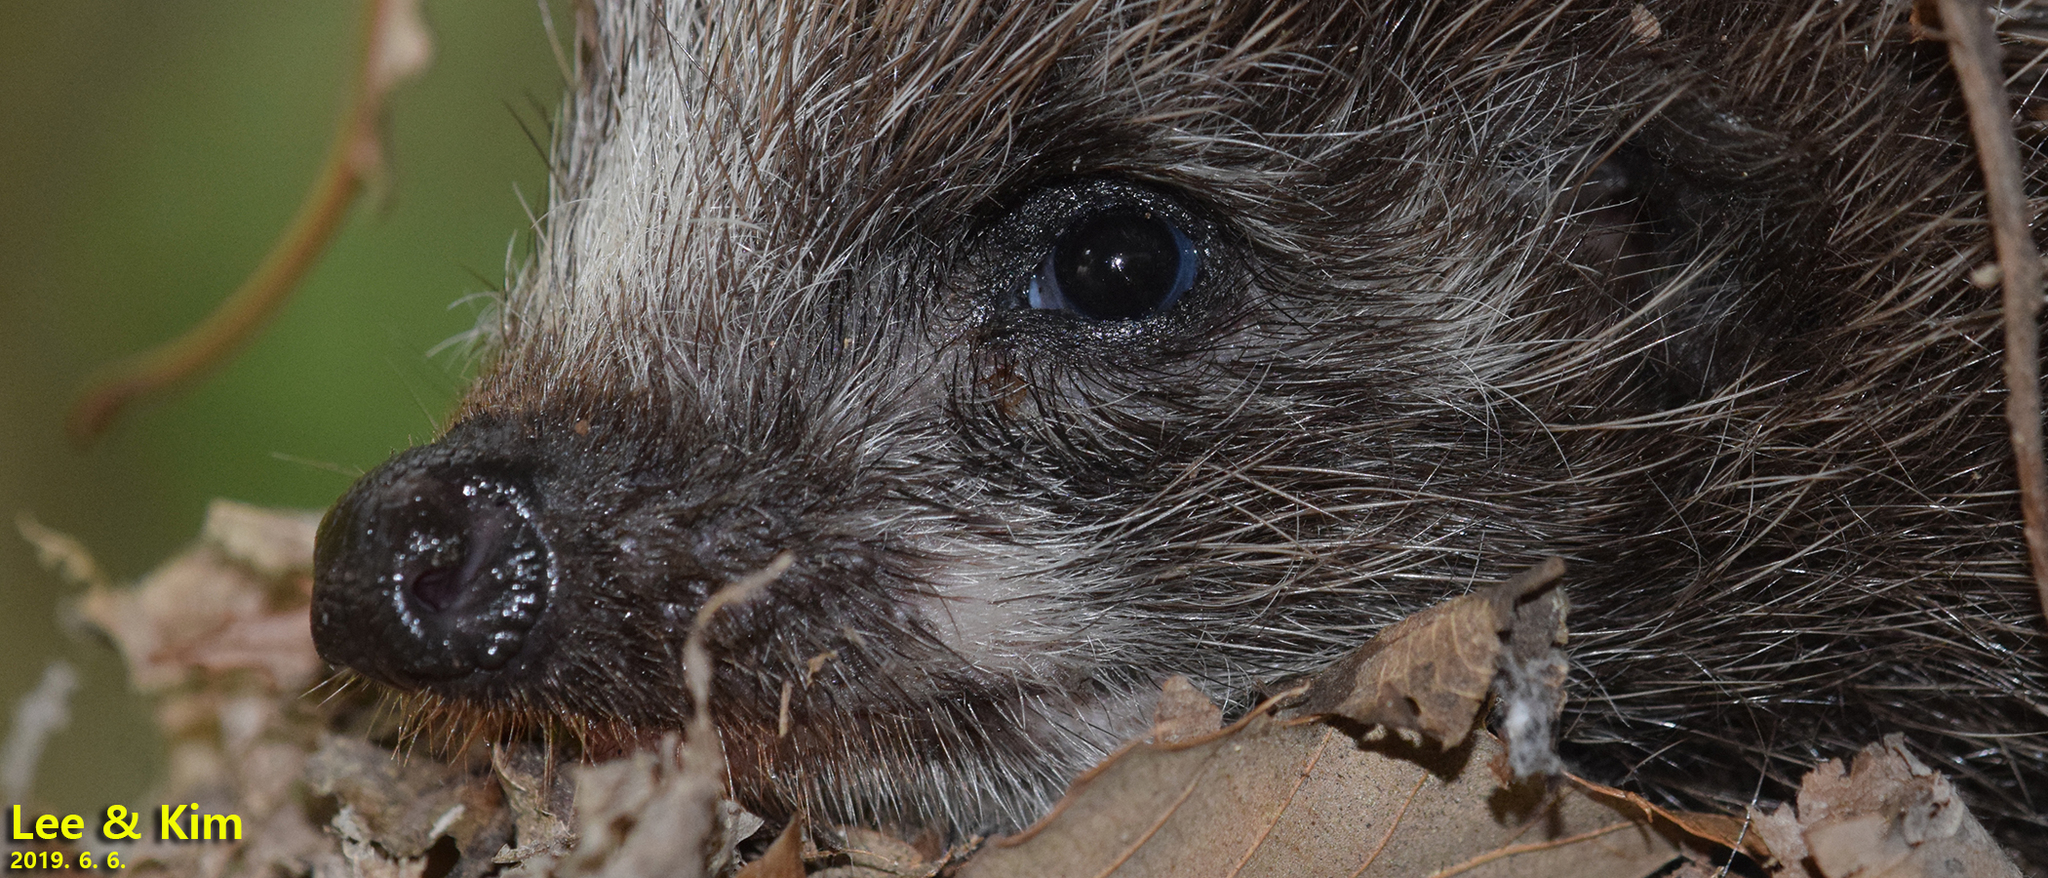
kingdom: Animalia
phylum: Chordata
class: Mammalia
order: Erinaceomorpha
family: Erinaceidae
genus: Erinaceus
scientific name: Erinaceus amurensis
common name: Amur hedgehog
